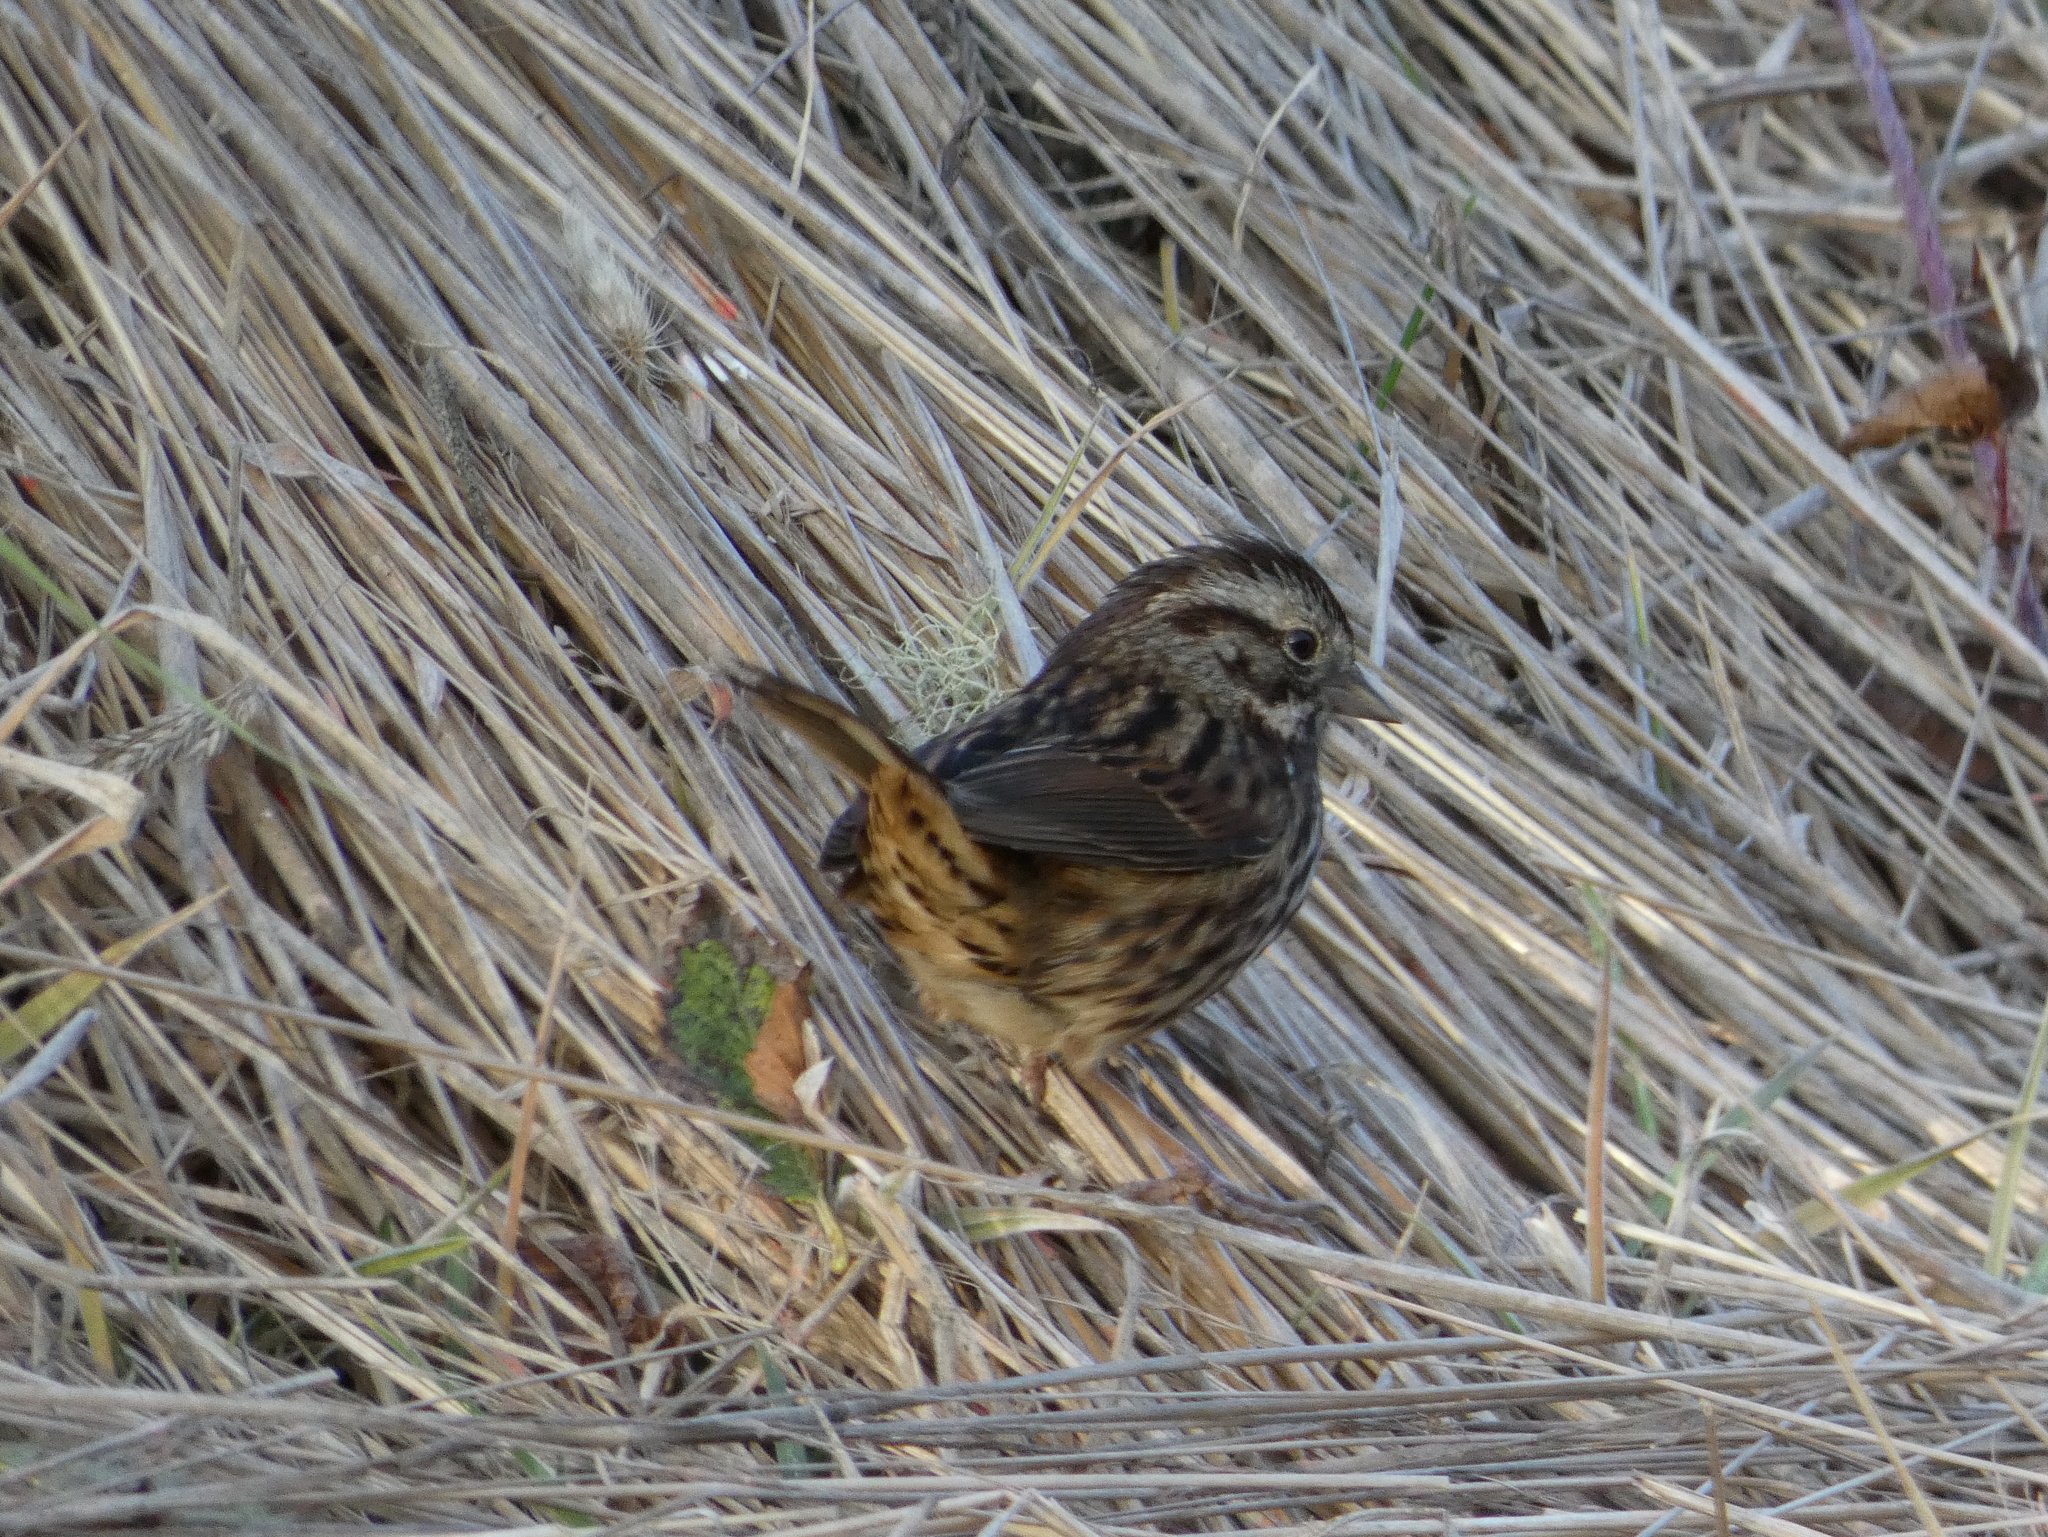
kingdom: Animalia
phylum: Chordata
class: Aves
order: Passeriformes
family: Passerellidae
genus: Melospiza
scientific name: Melospiza melodia
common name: Song sparrow
